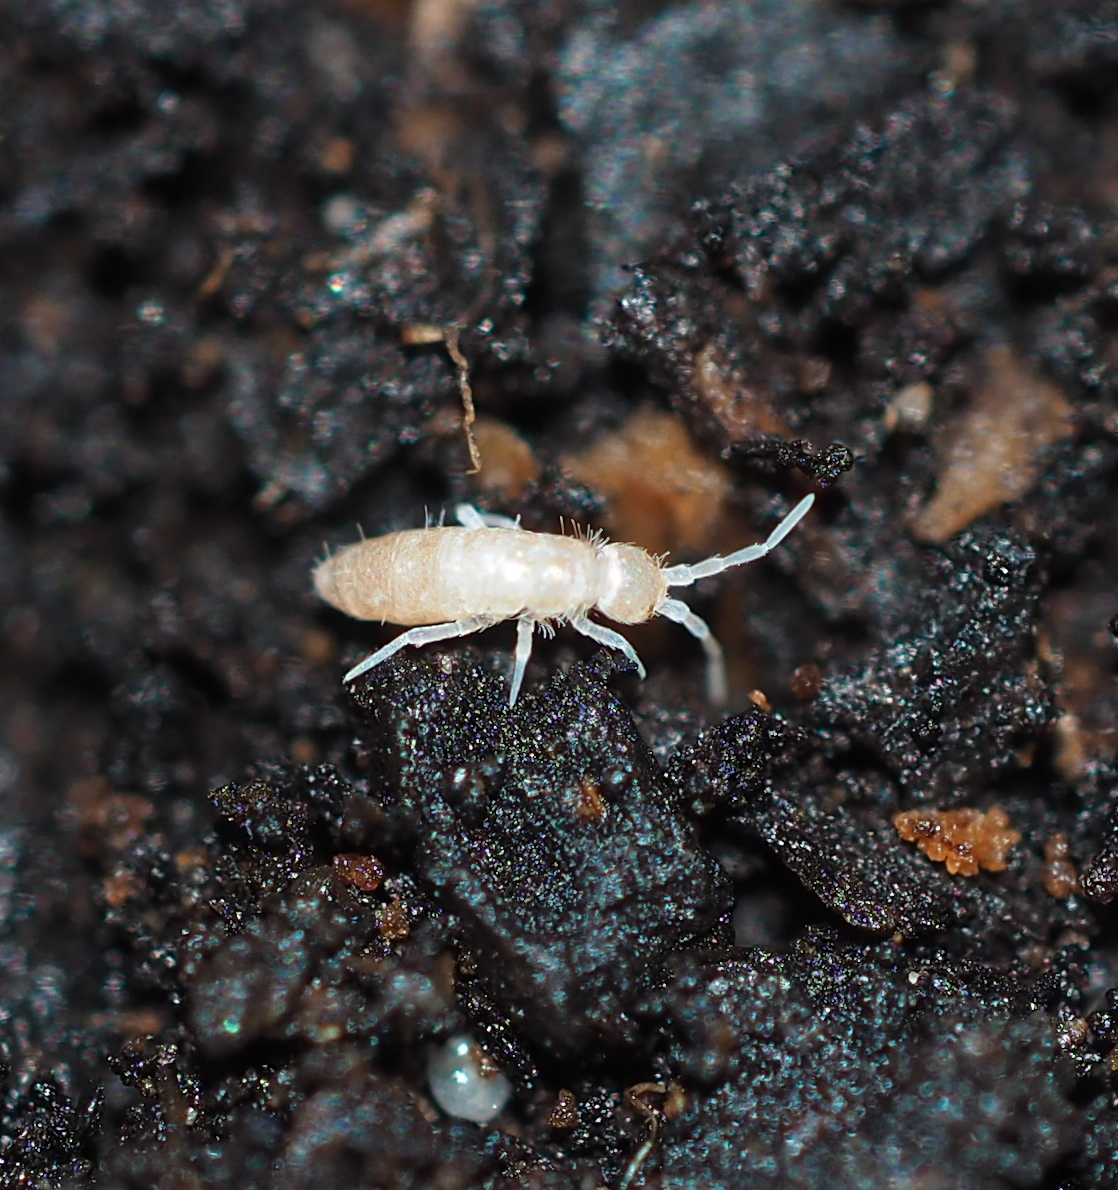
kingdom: Animalia
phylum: Arthropoda
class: Collembola
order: Entomobryomorpha
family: Orchesellidae
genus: Heteromurus
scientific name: Heteromurus nitidus
